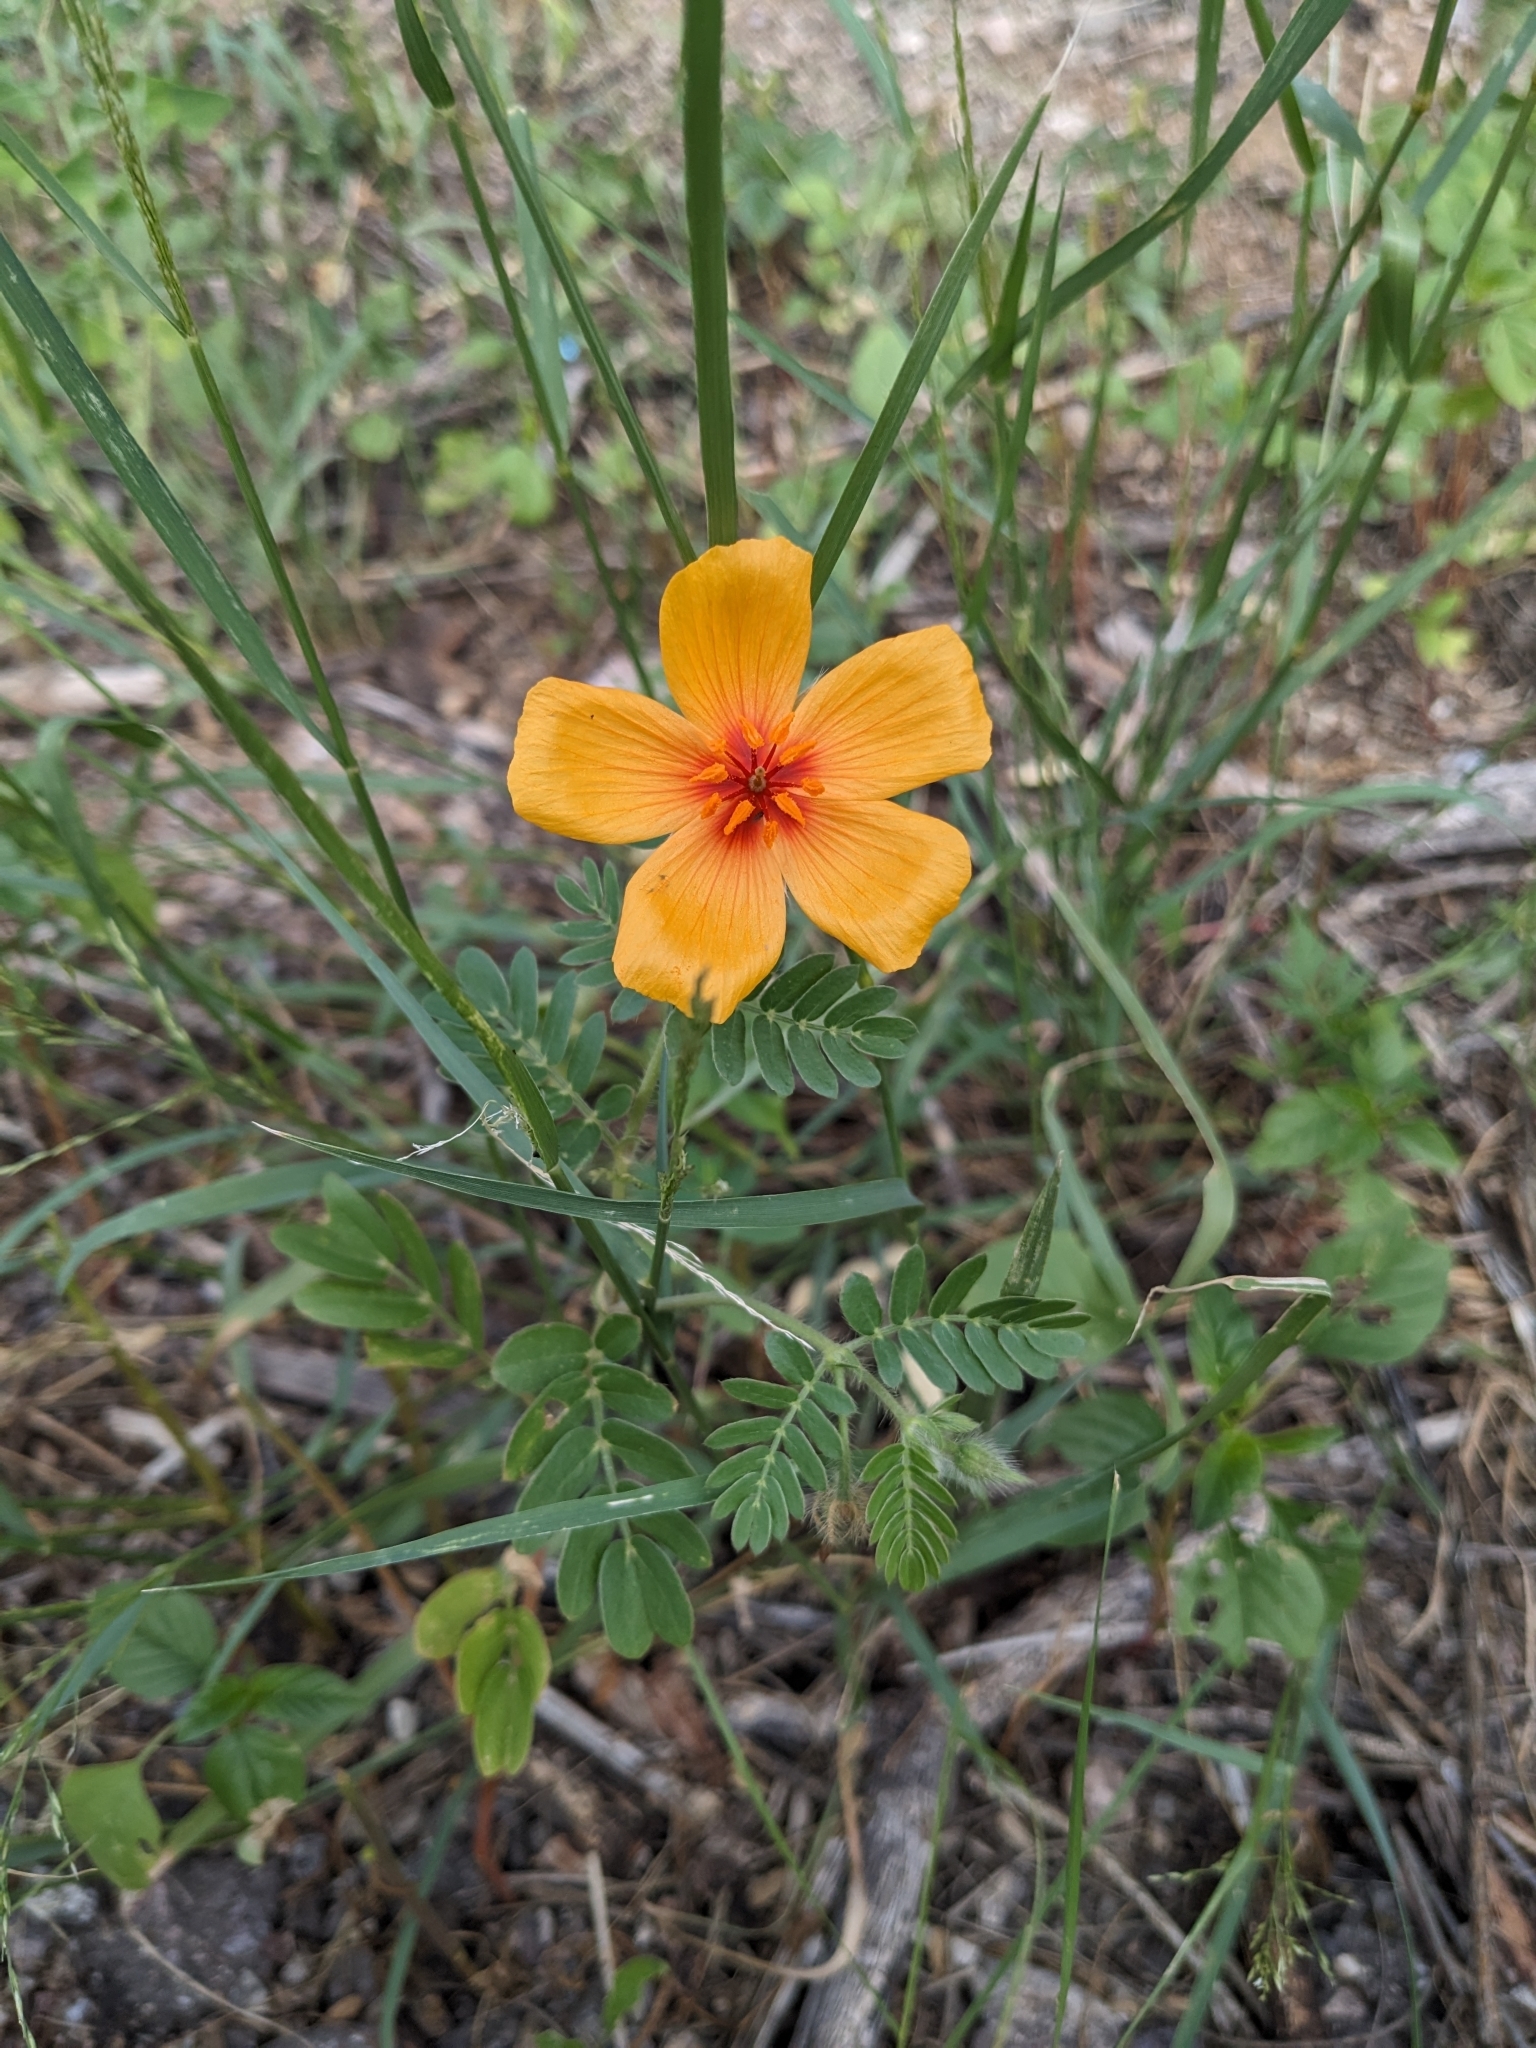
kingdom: Plantae
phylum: Tracheophyta
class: Magnoliopsida
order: Zygophyllales
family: Zygophyllaceae
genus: Kallstroemia
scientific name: Kallstroemia grandiflora
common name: Arizona-poppy
